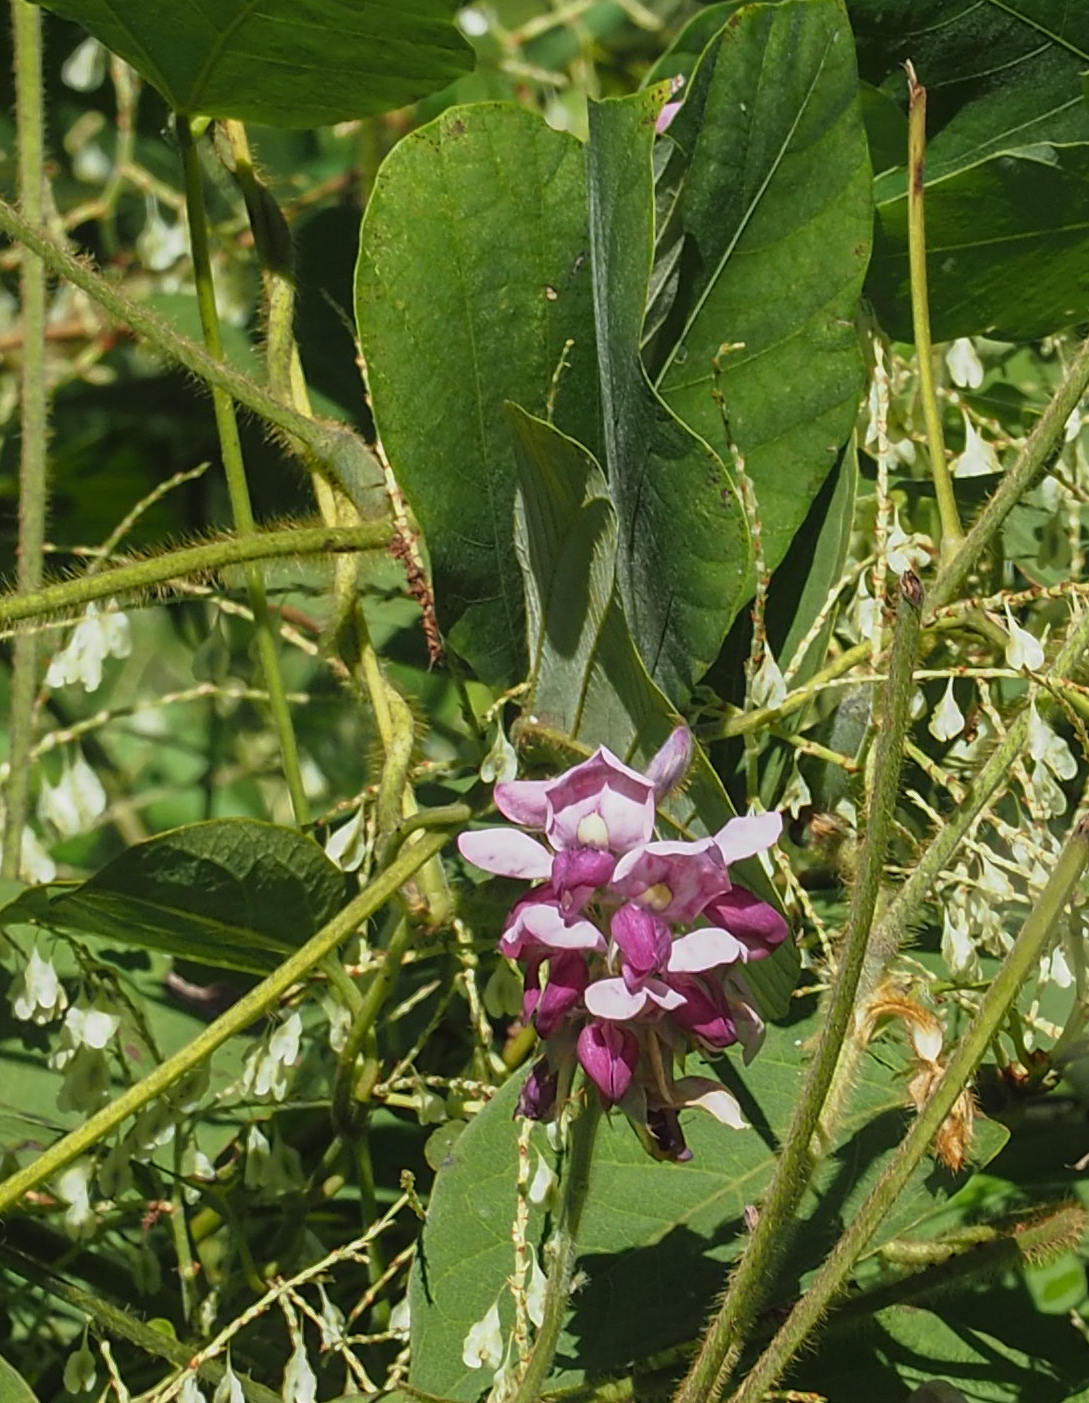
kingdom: Plantae
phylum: Tracheophyta
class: Magnoliopsida
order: Fabales
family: Fabaceae
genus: Pueraria
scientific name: Pueraria montana
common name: Kudzu
